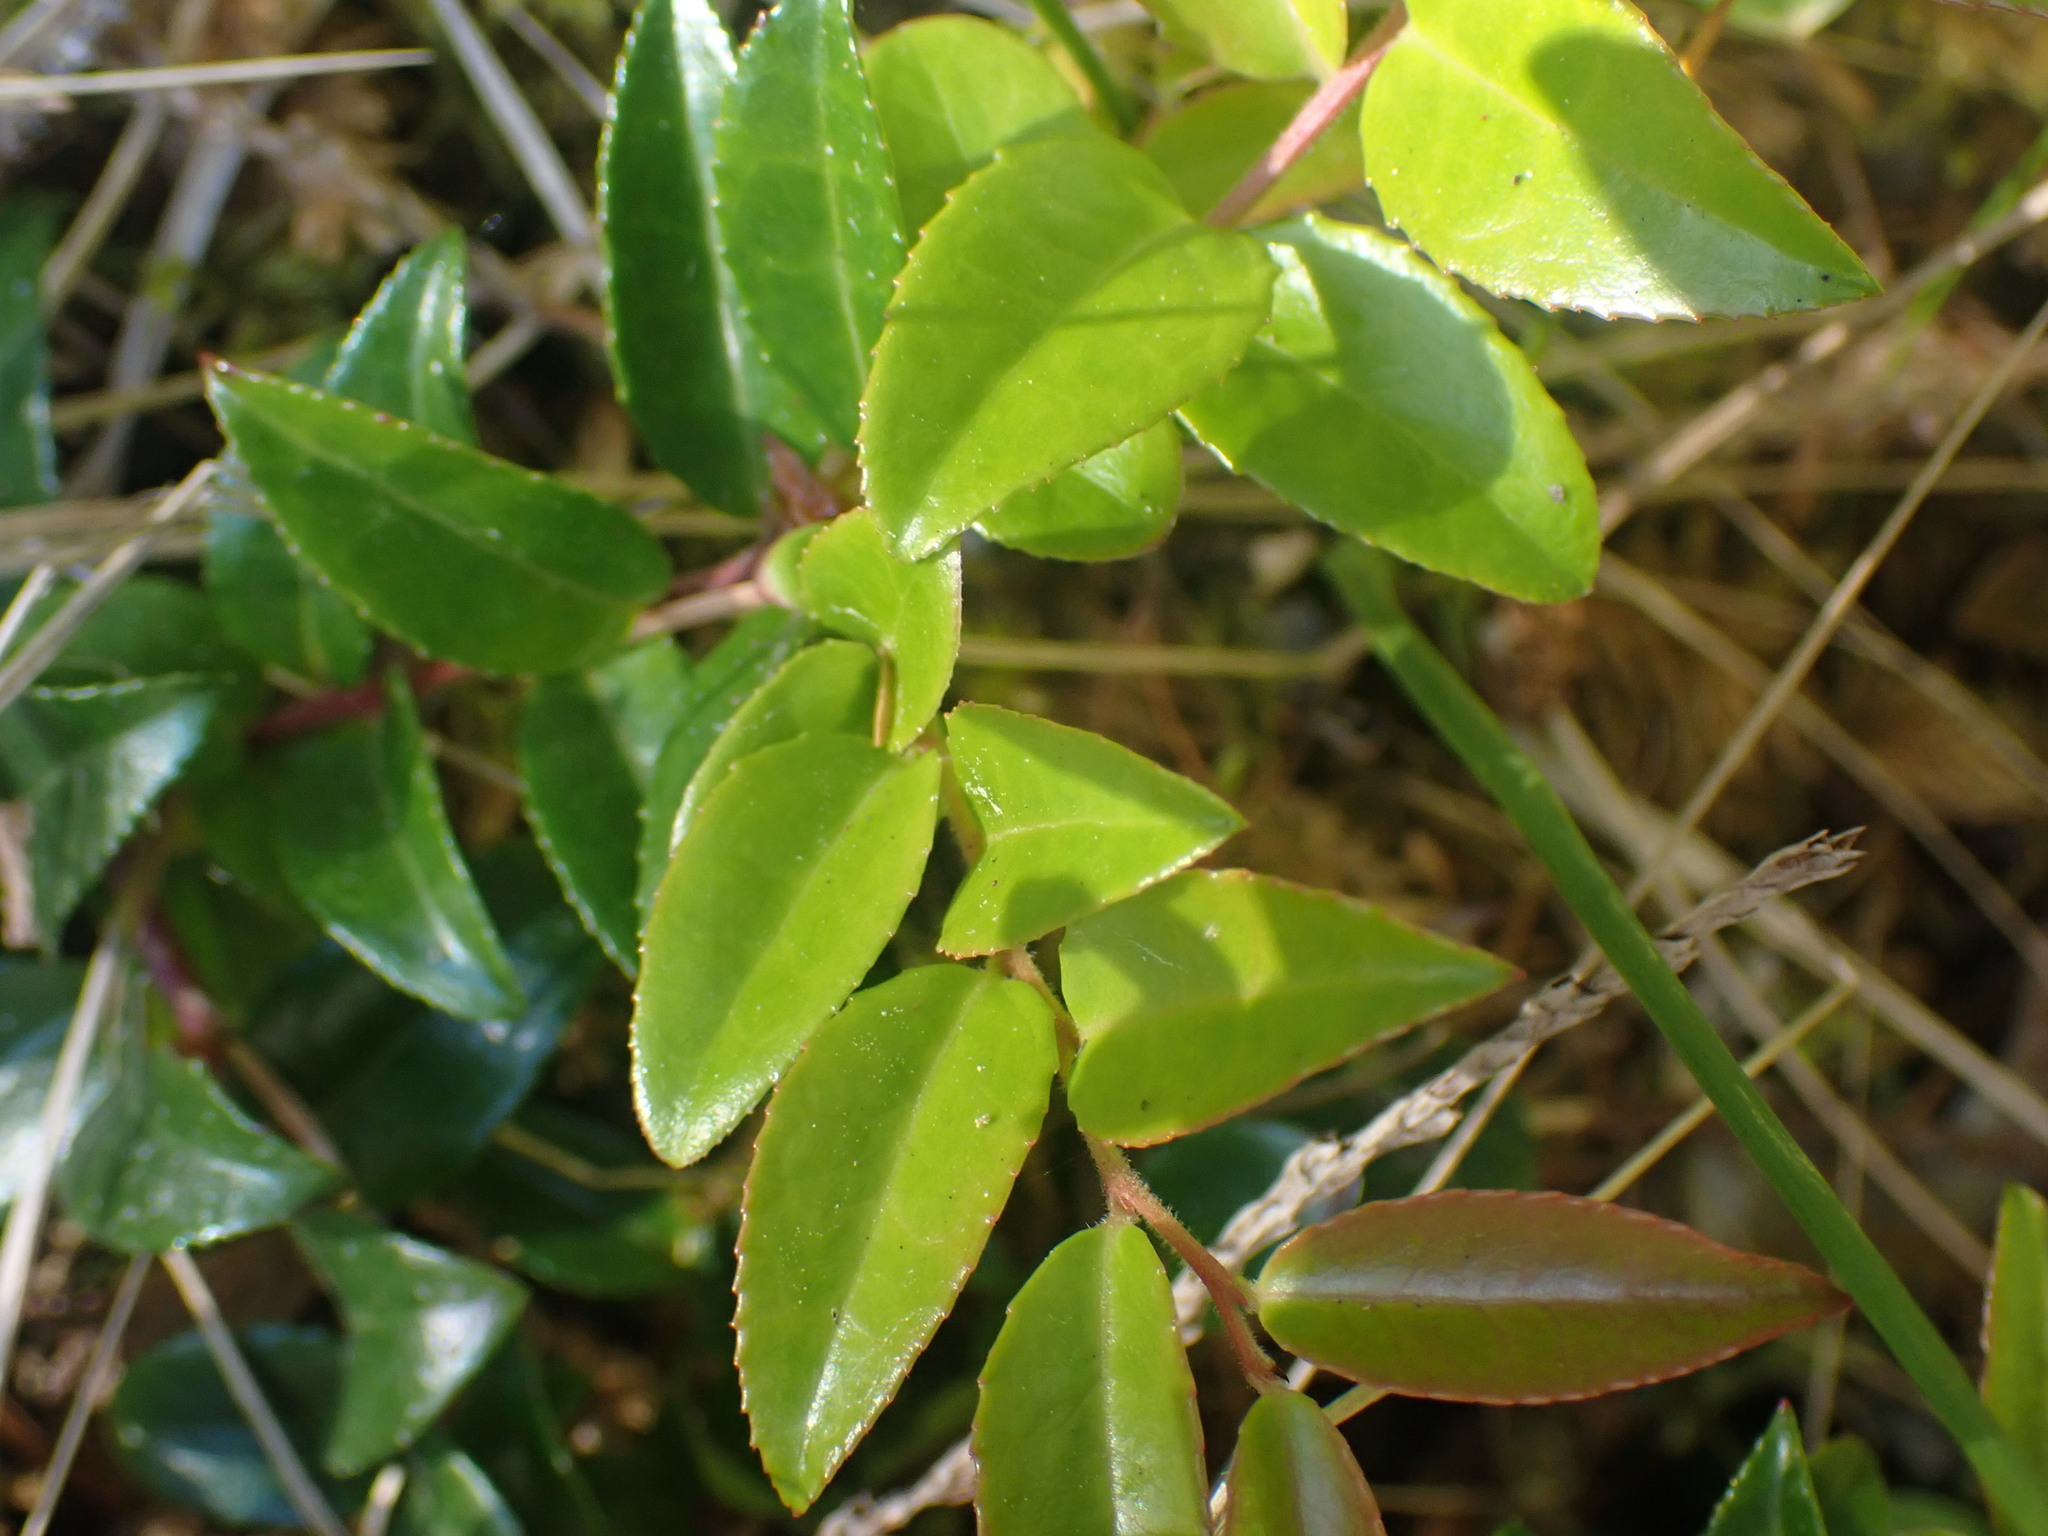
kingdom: Plantae
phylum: Tracheophyta
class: Magnoliopsida
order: Ericales
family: Ericaceae
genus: Vaccinium
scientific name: Vaccinium ovatum
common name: California-huckleberry
